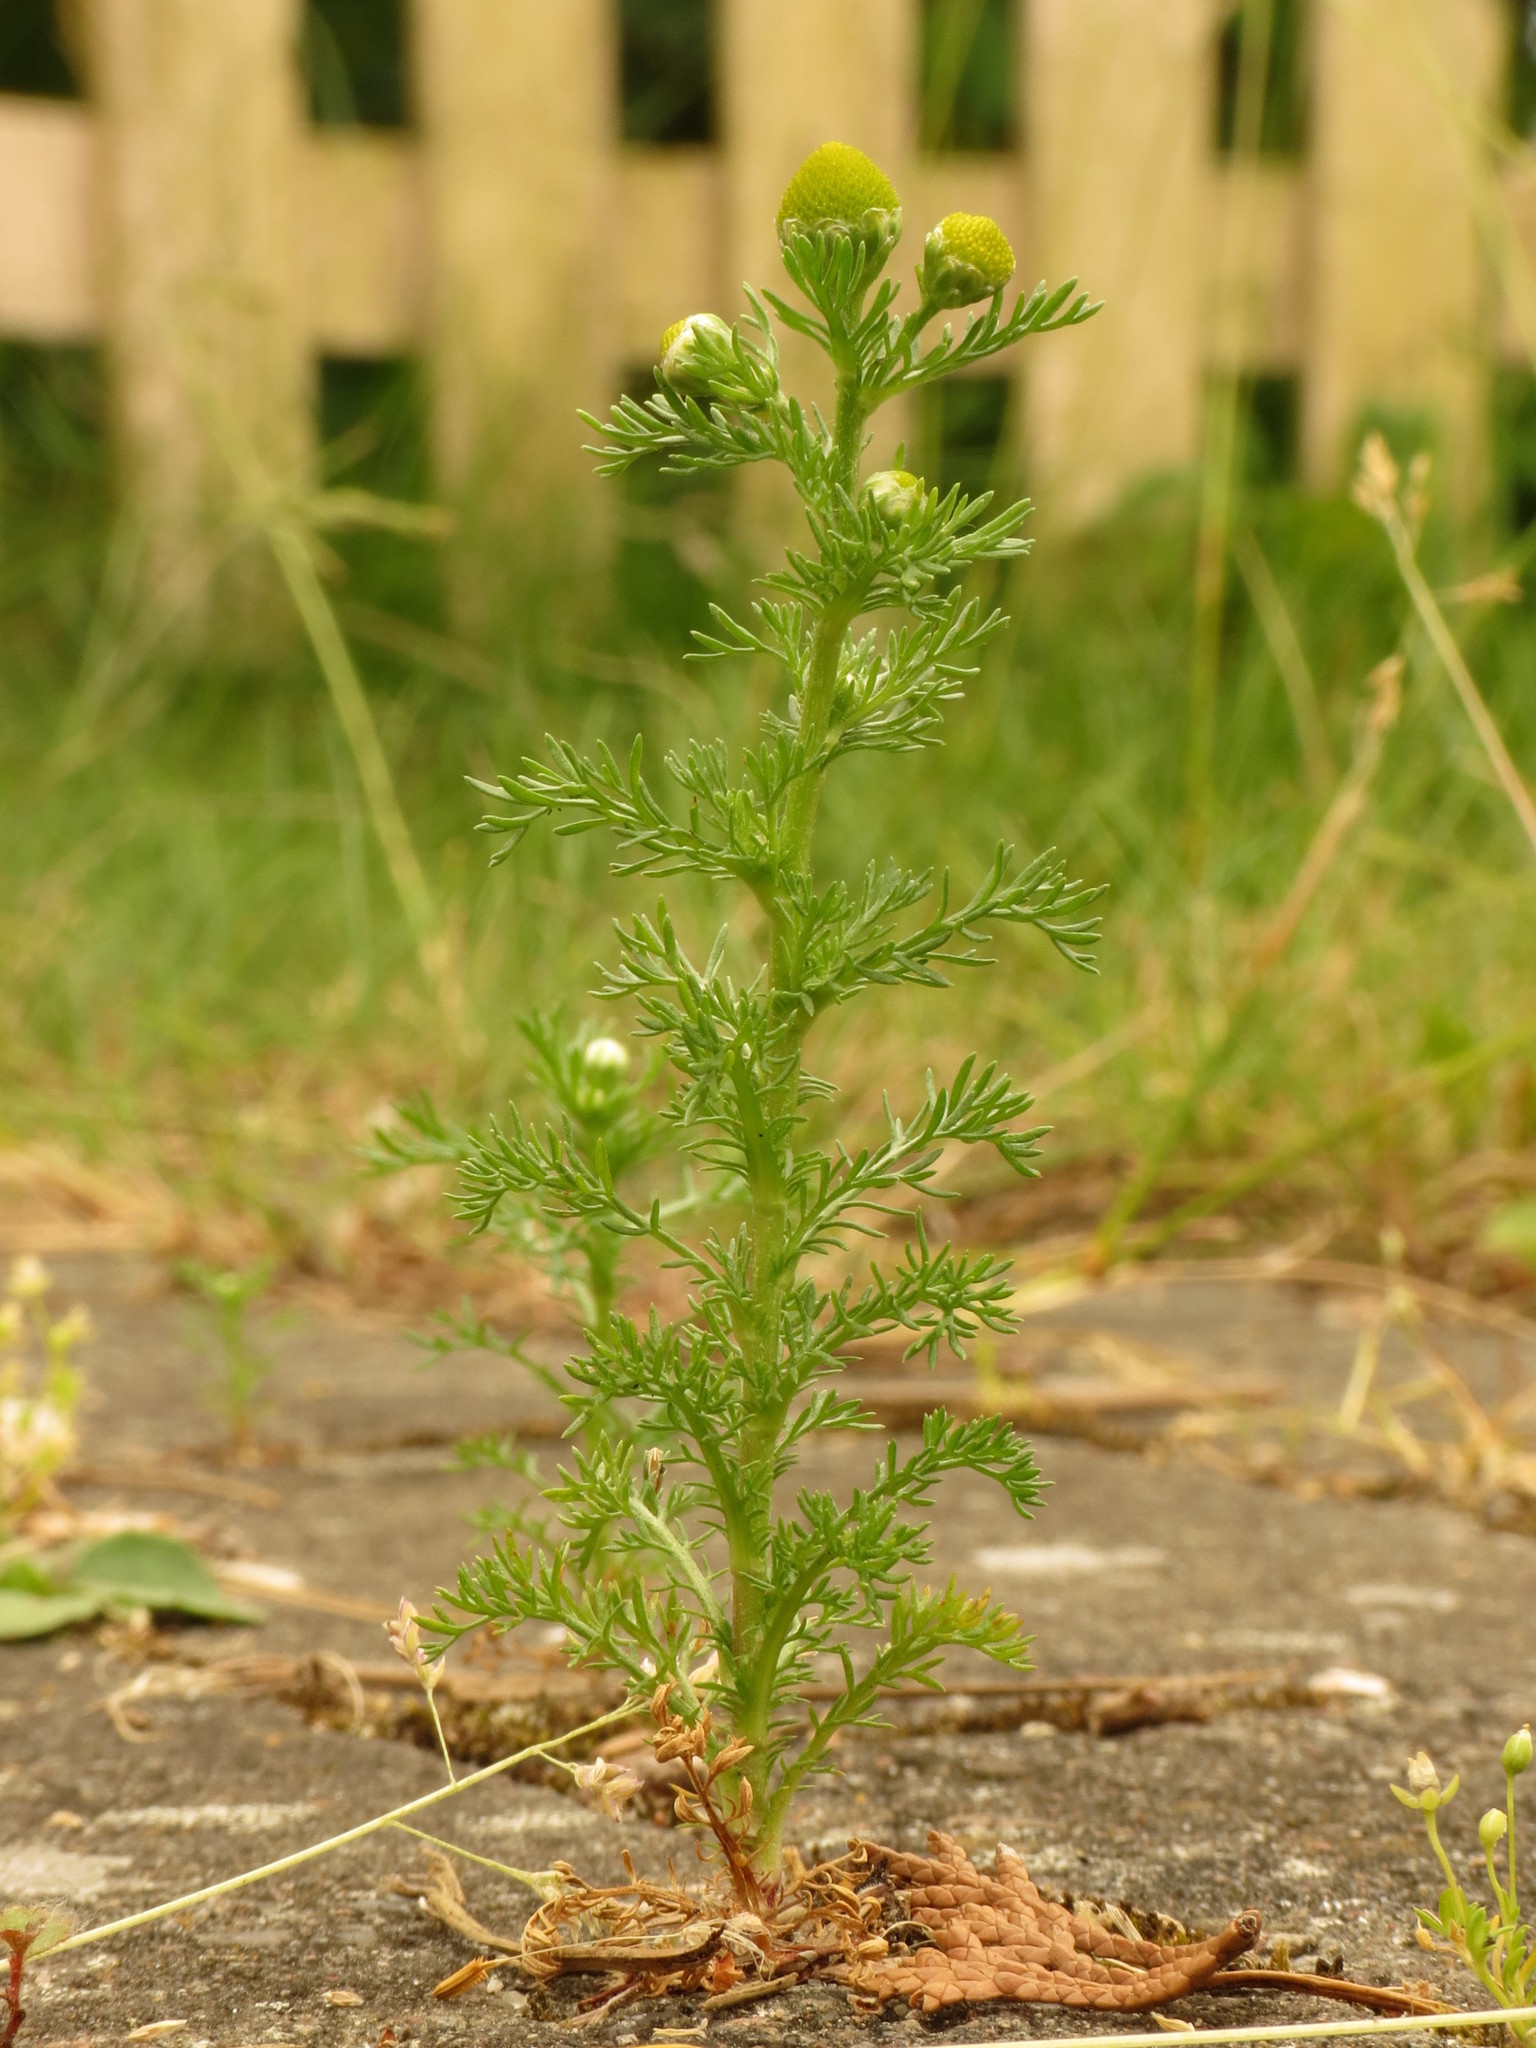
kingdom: Plantae
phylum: Tracheophyta
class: Magnoliopsida
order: Asterales
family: Asteraceae
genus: Matricaria
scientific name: Matricaria discoidea
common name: Disc mayweed
